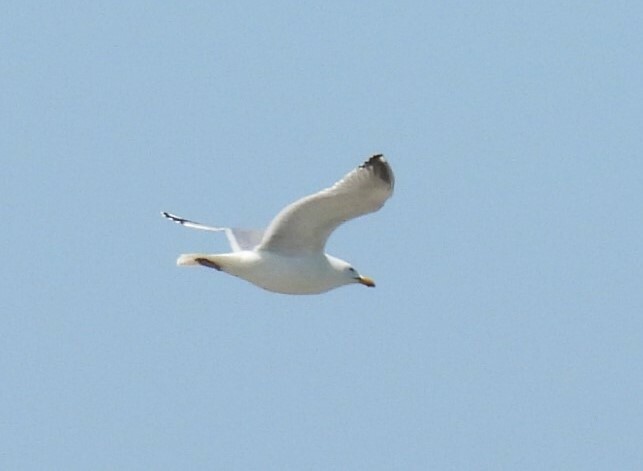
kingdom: Animalia
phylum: Chordata
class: Aves
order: Charadriiformes
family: Laridae
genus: Larus
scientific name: Larus argentatus
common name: Herring gull
